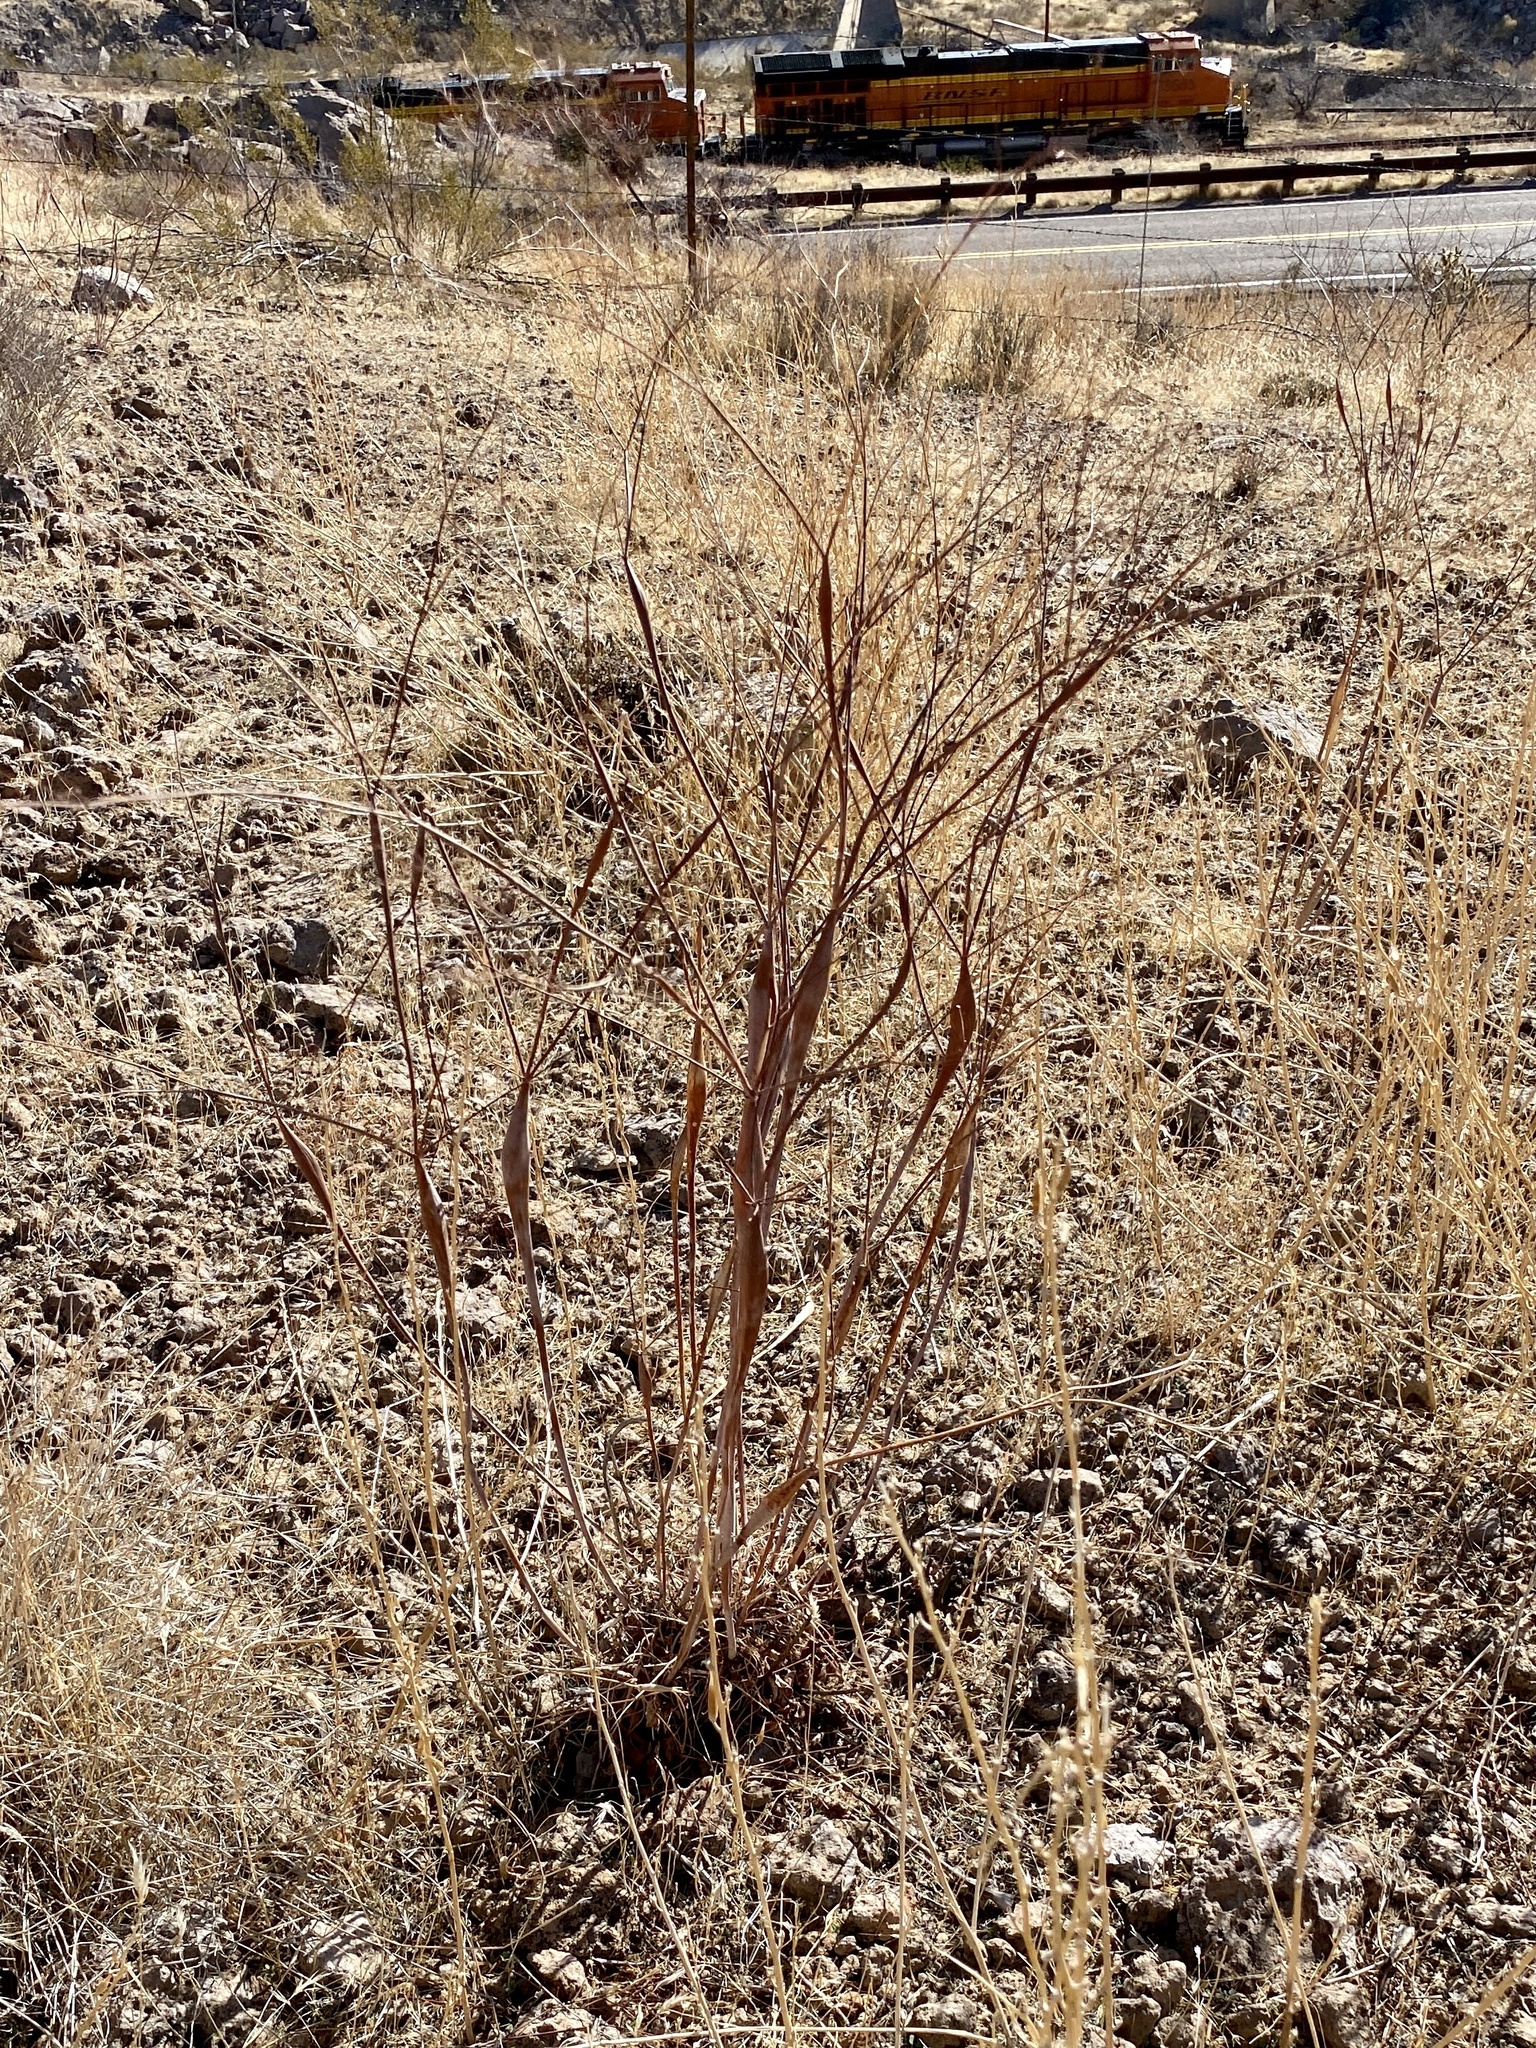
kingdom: Plantae
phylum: Tracheophyta
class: Magnoliopsida
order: Caryophyllales
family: Polygonaceae
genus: Eriogonum
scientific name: Eriogonum inflatum
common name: Desert trumpet
